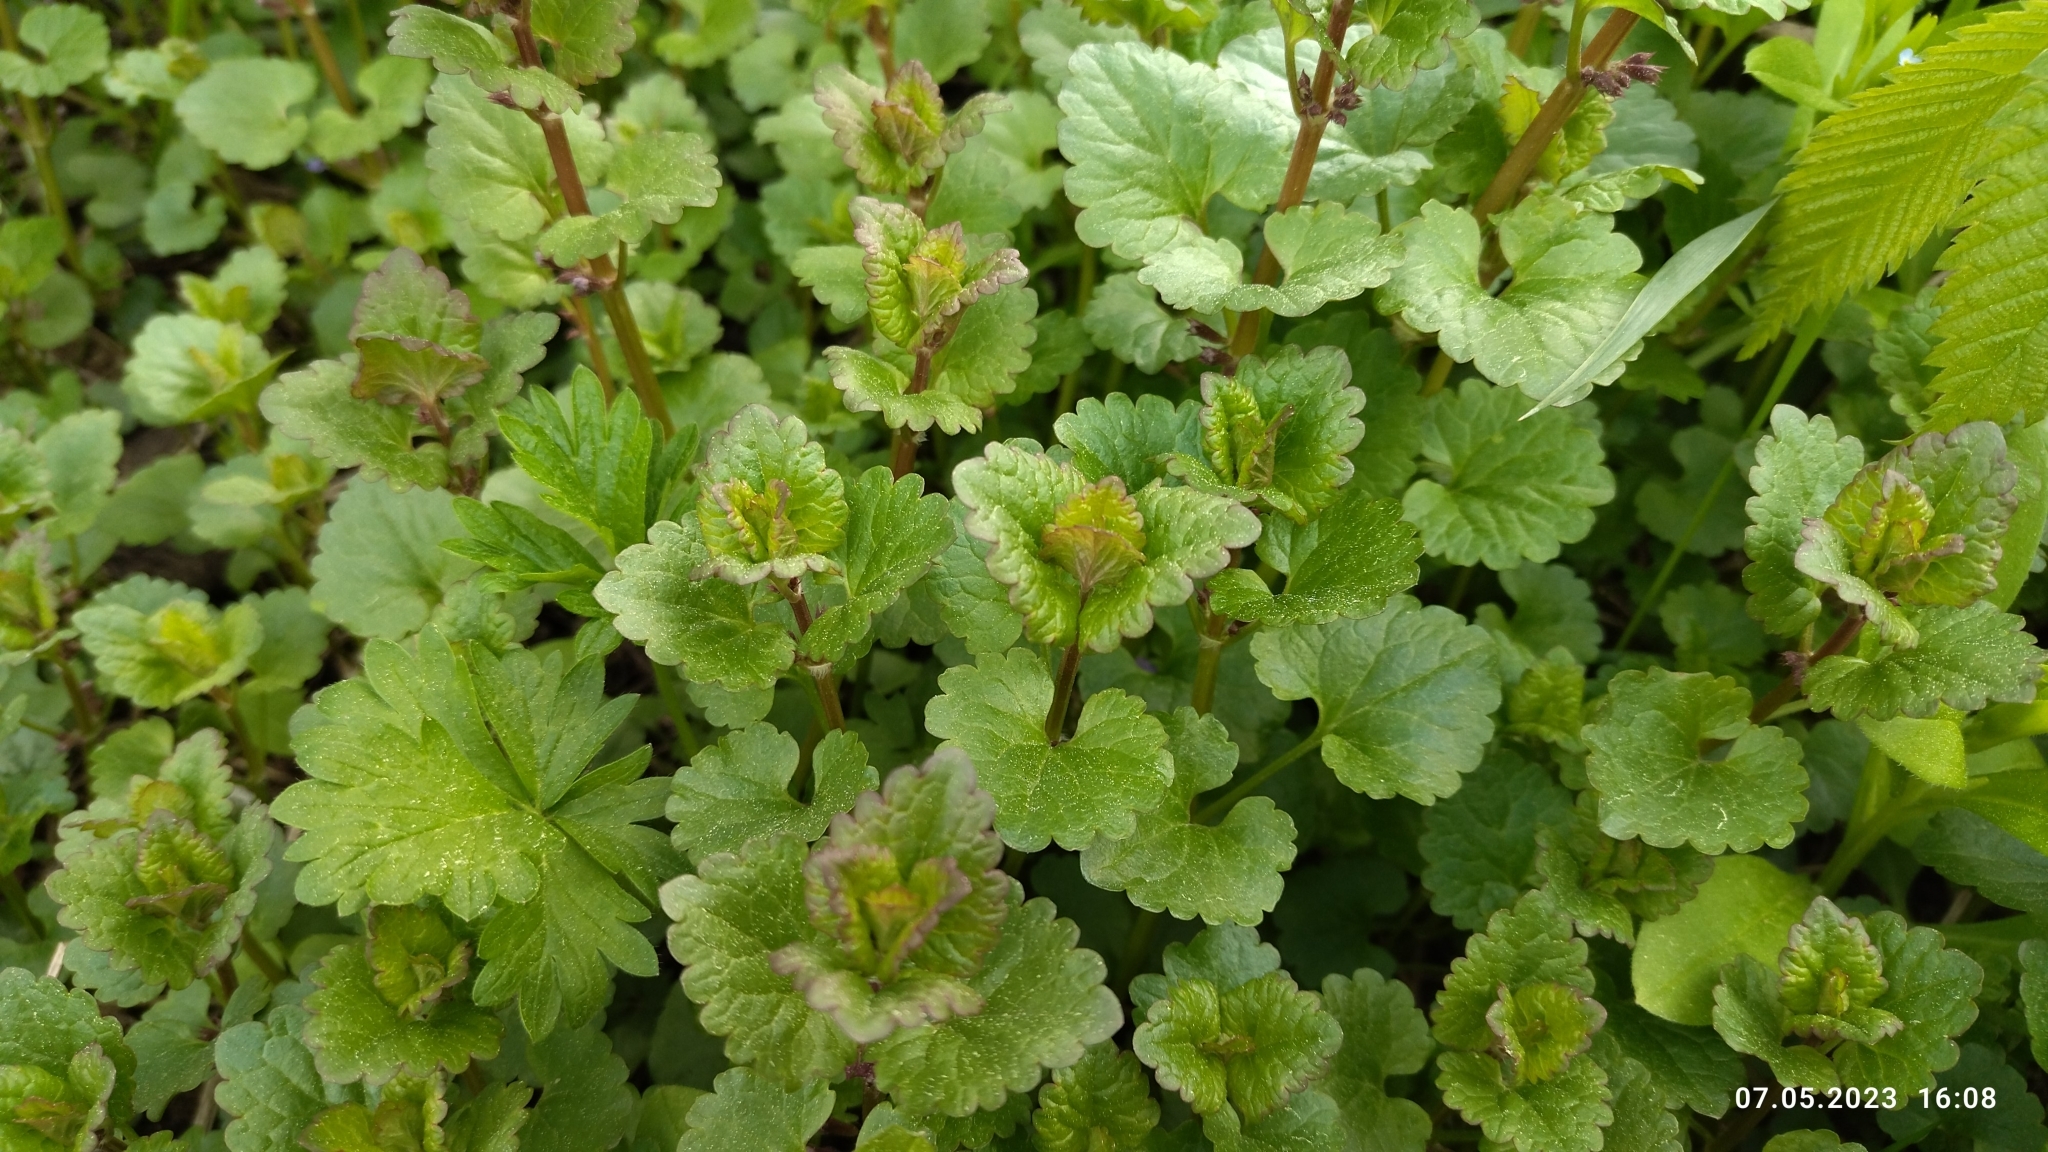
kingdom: Plantae
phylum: Tracheophyta
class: Magnoliopsida
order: Lamiales
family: Lamiaceae
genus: Glechoma
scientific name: Glechoma hederacea
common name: Ground ivy
